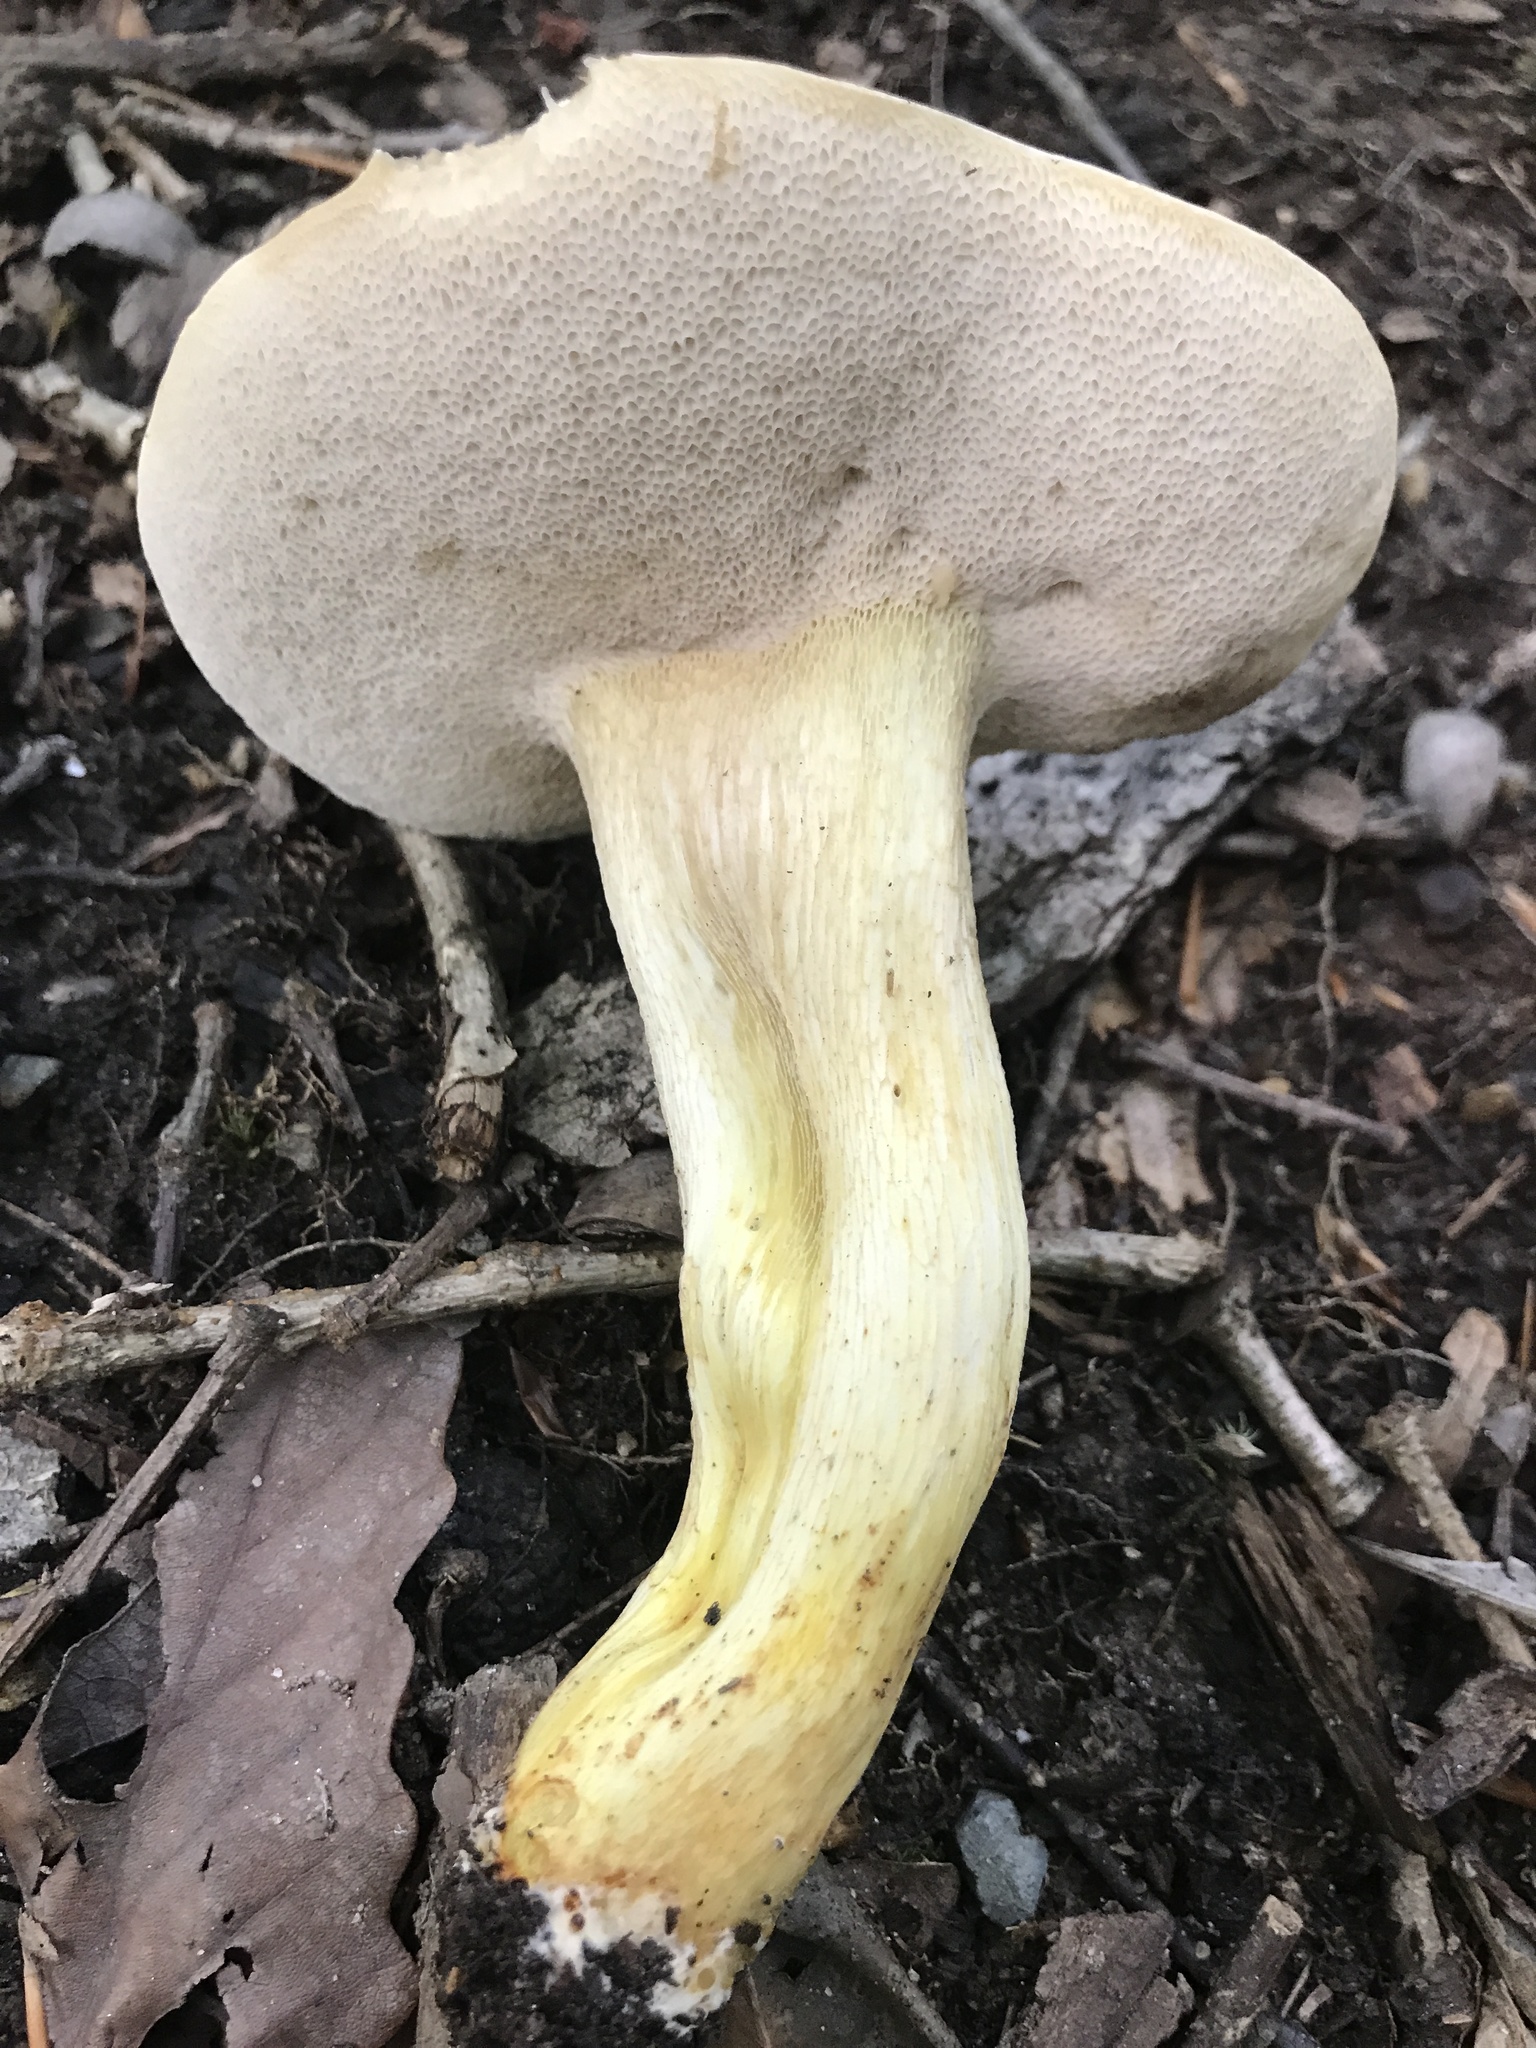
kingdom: Fungi
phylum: Basidiomycota
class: Agaricomycetes
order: Boletales
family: Boletaceae
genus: Retiboletus
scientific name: Retiboletus griseus
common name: Grey bolete
